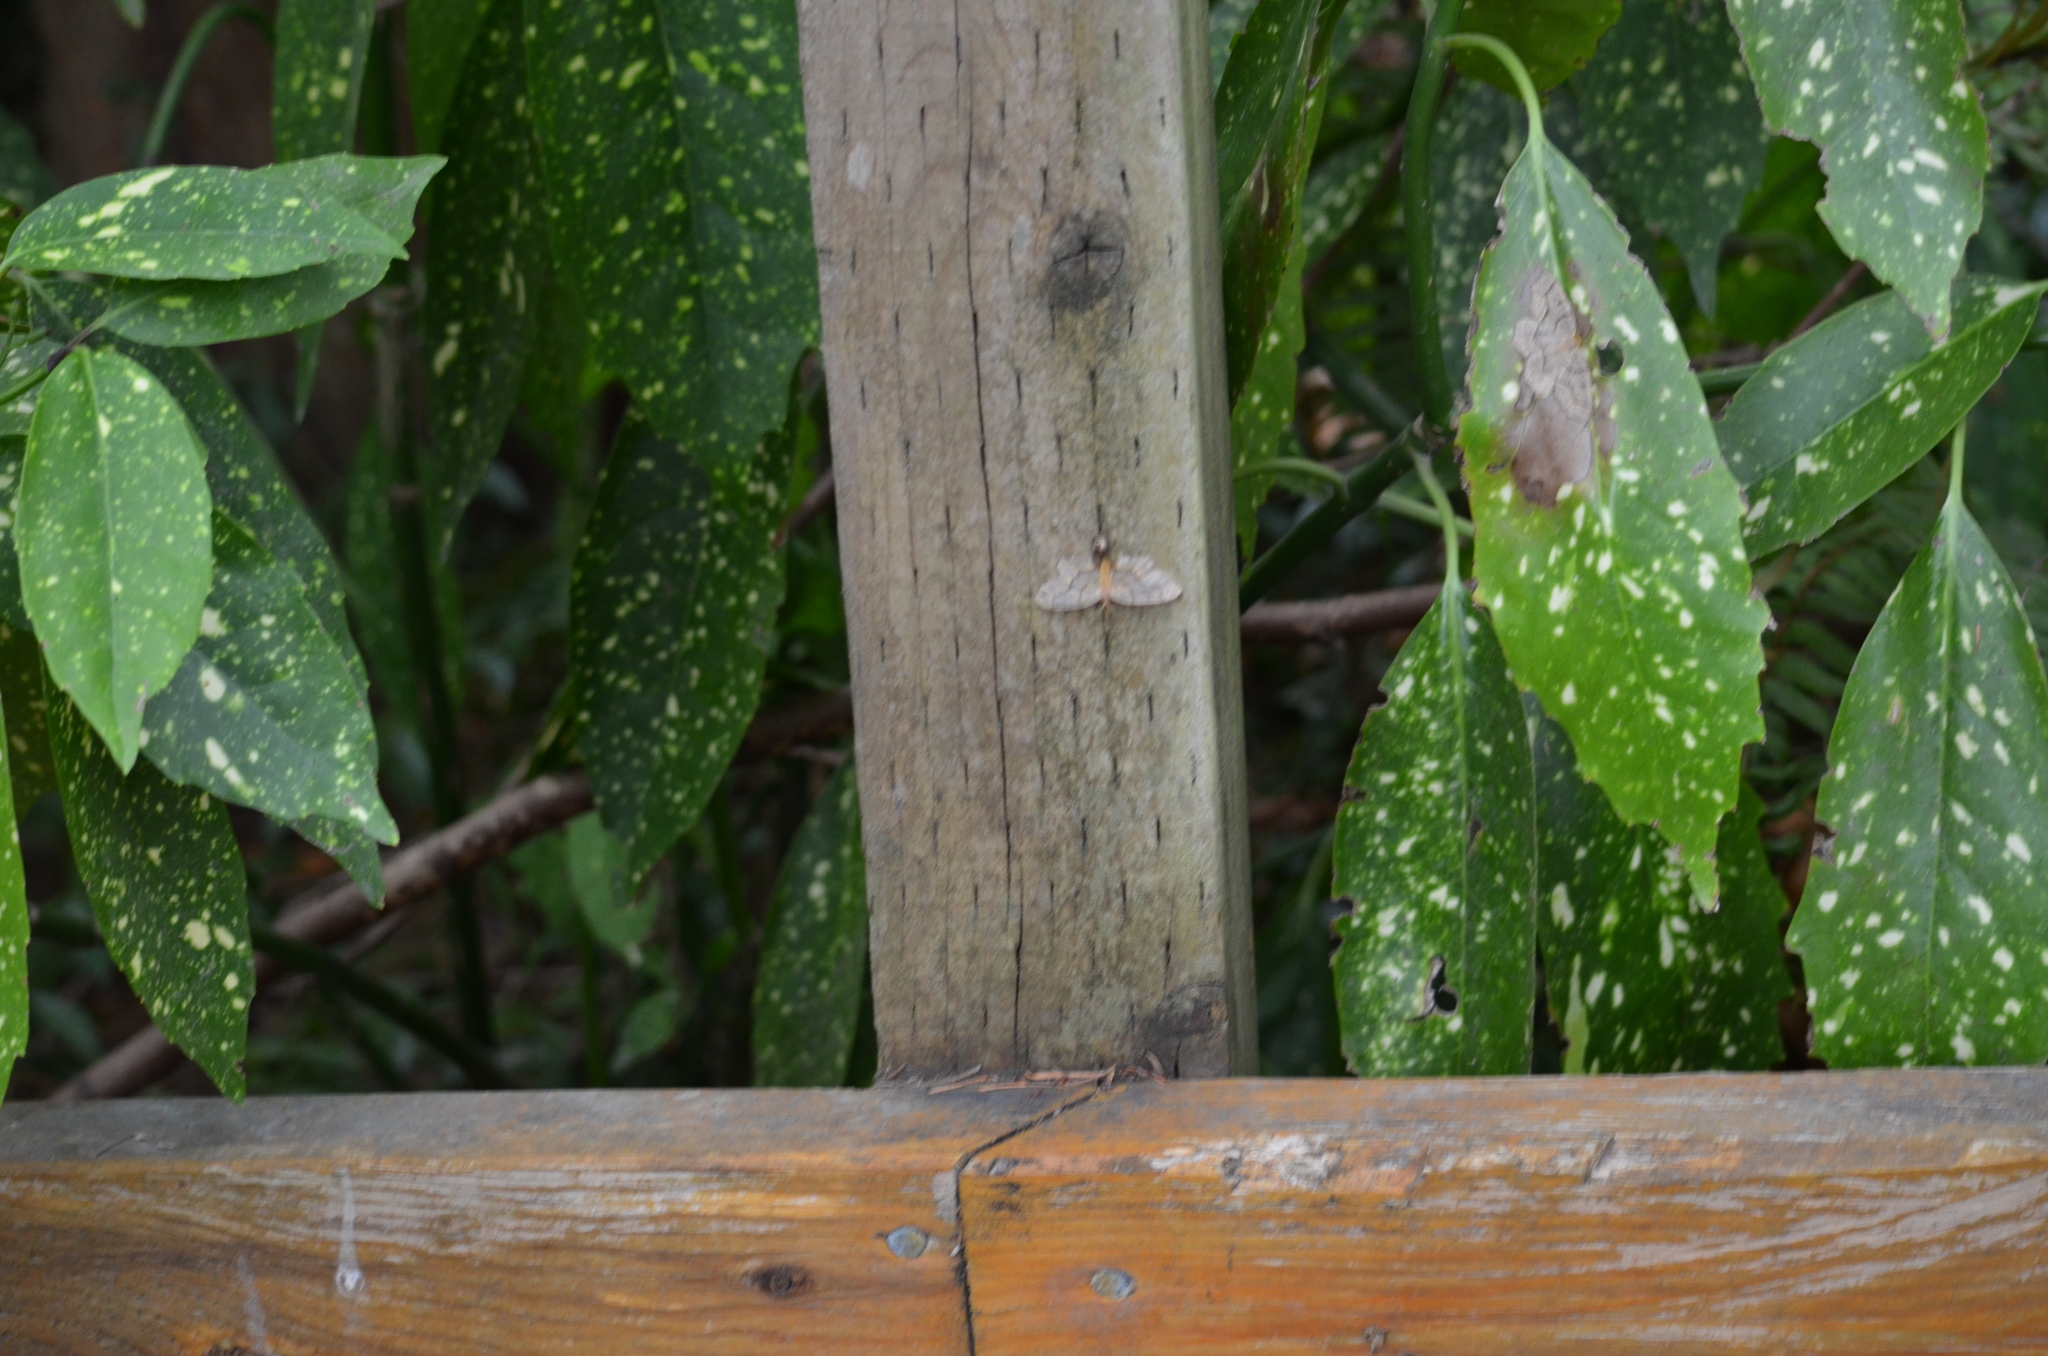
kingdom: Animalia
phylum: Arthropoda
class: Insecta
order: Lepidoptera
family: Geometridae
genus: Lambdina
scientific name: Lambdina fiscellaria
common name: Hemlock looper
